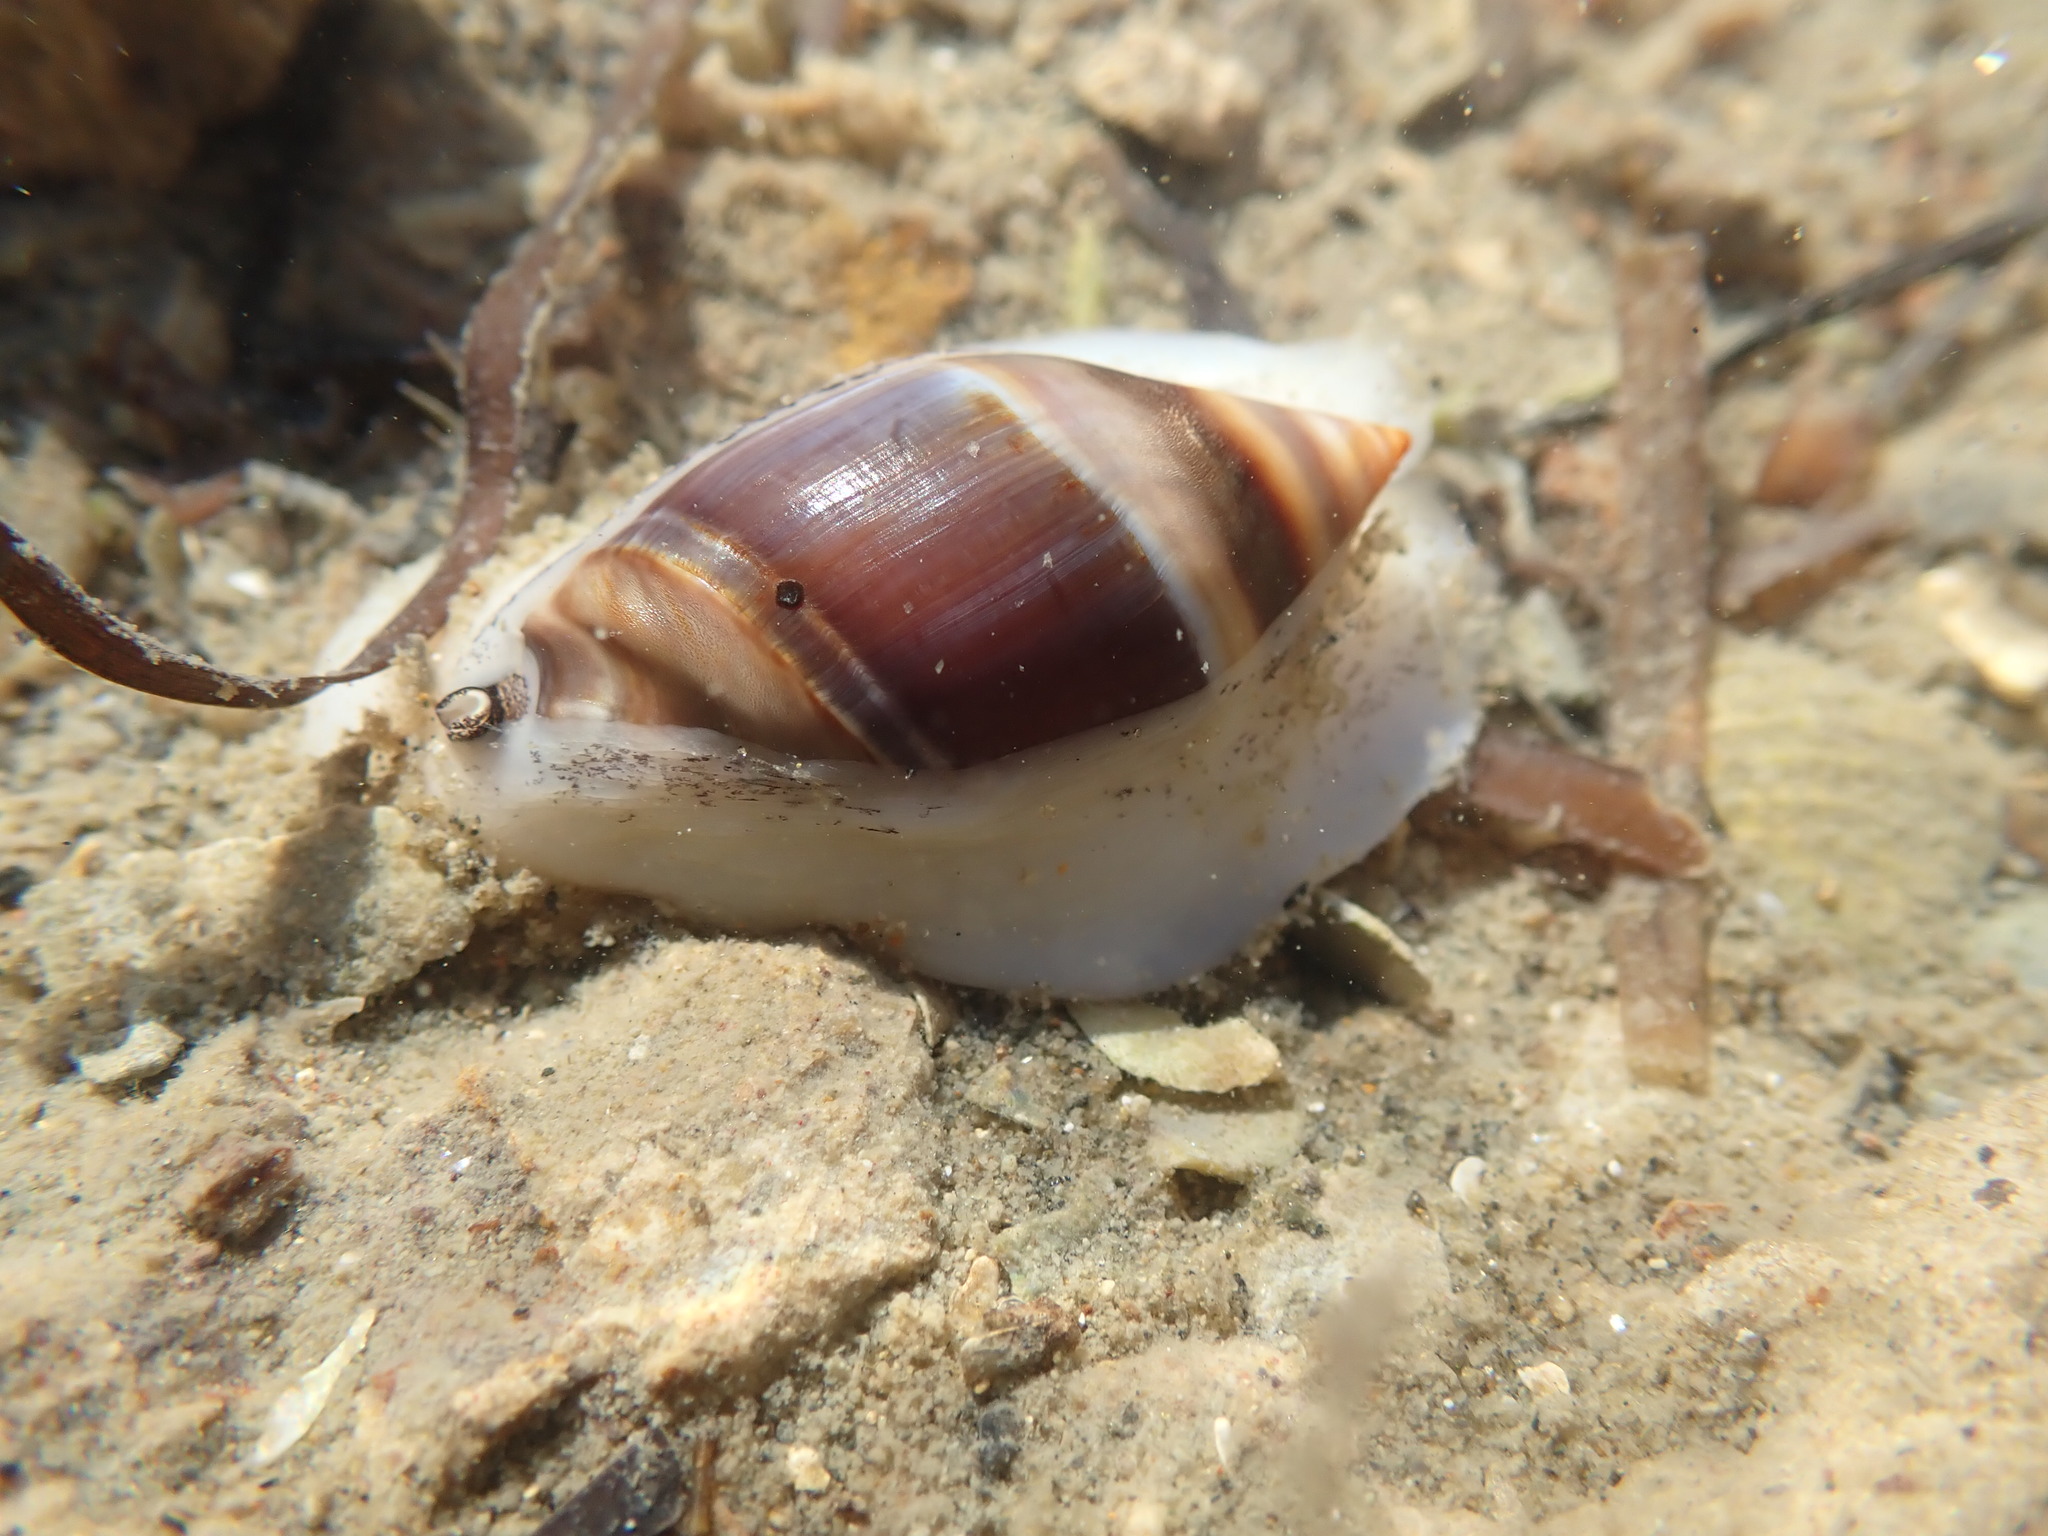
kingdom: Animalia
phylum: Mollusca
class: Gastropoda
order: Neogastropoda
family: Ancillariidae
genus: Amalda
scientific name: Amalda australis
